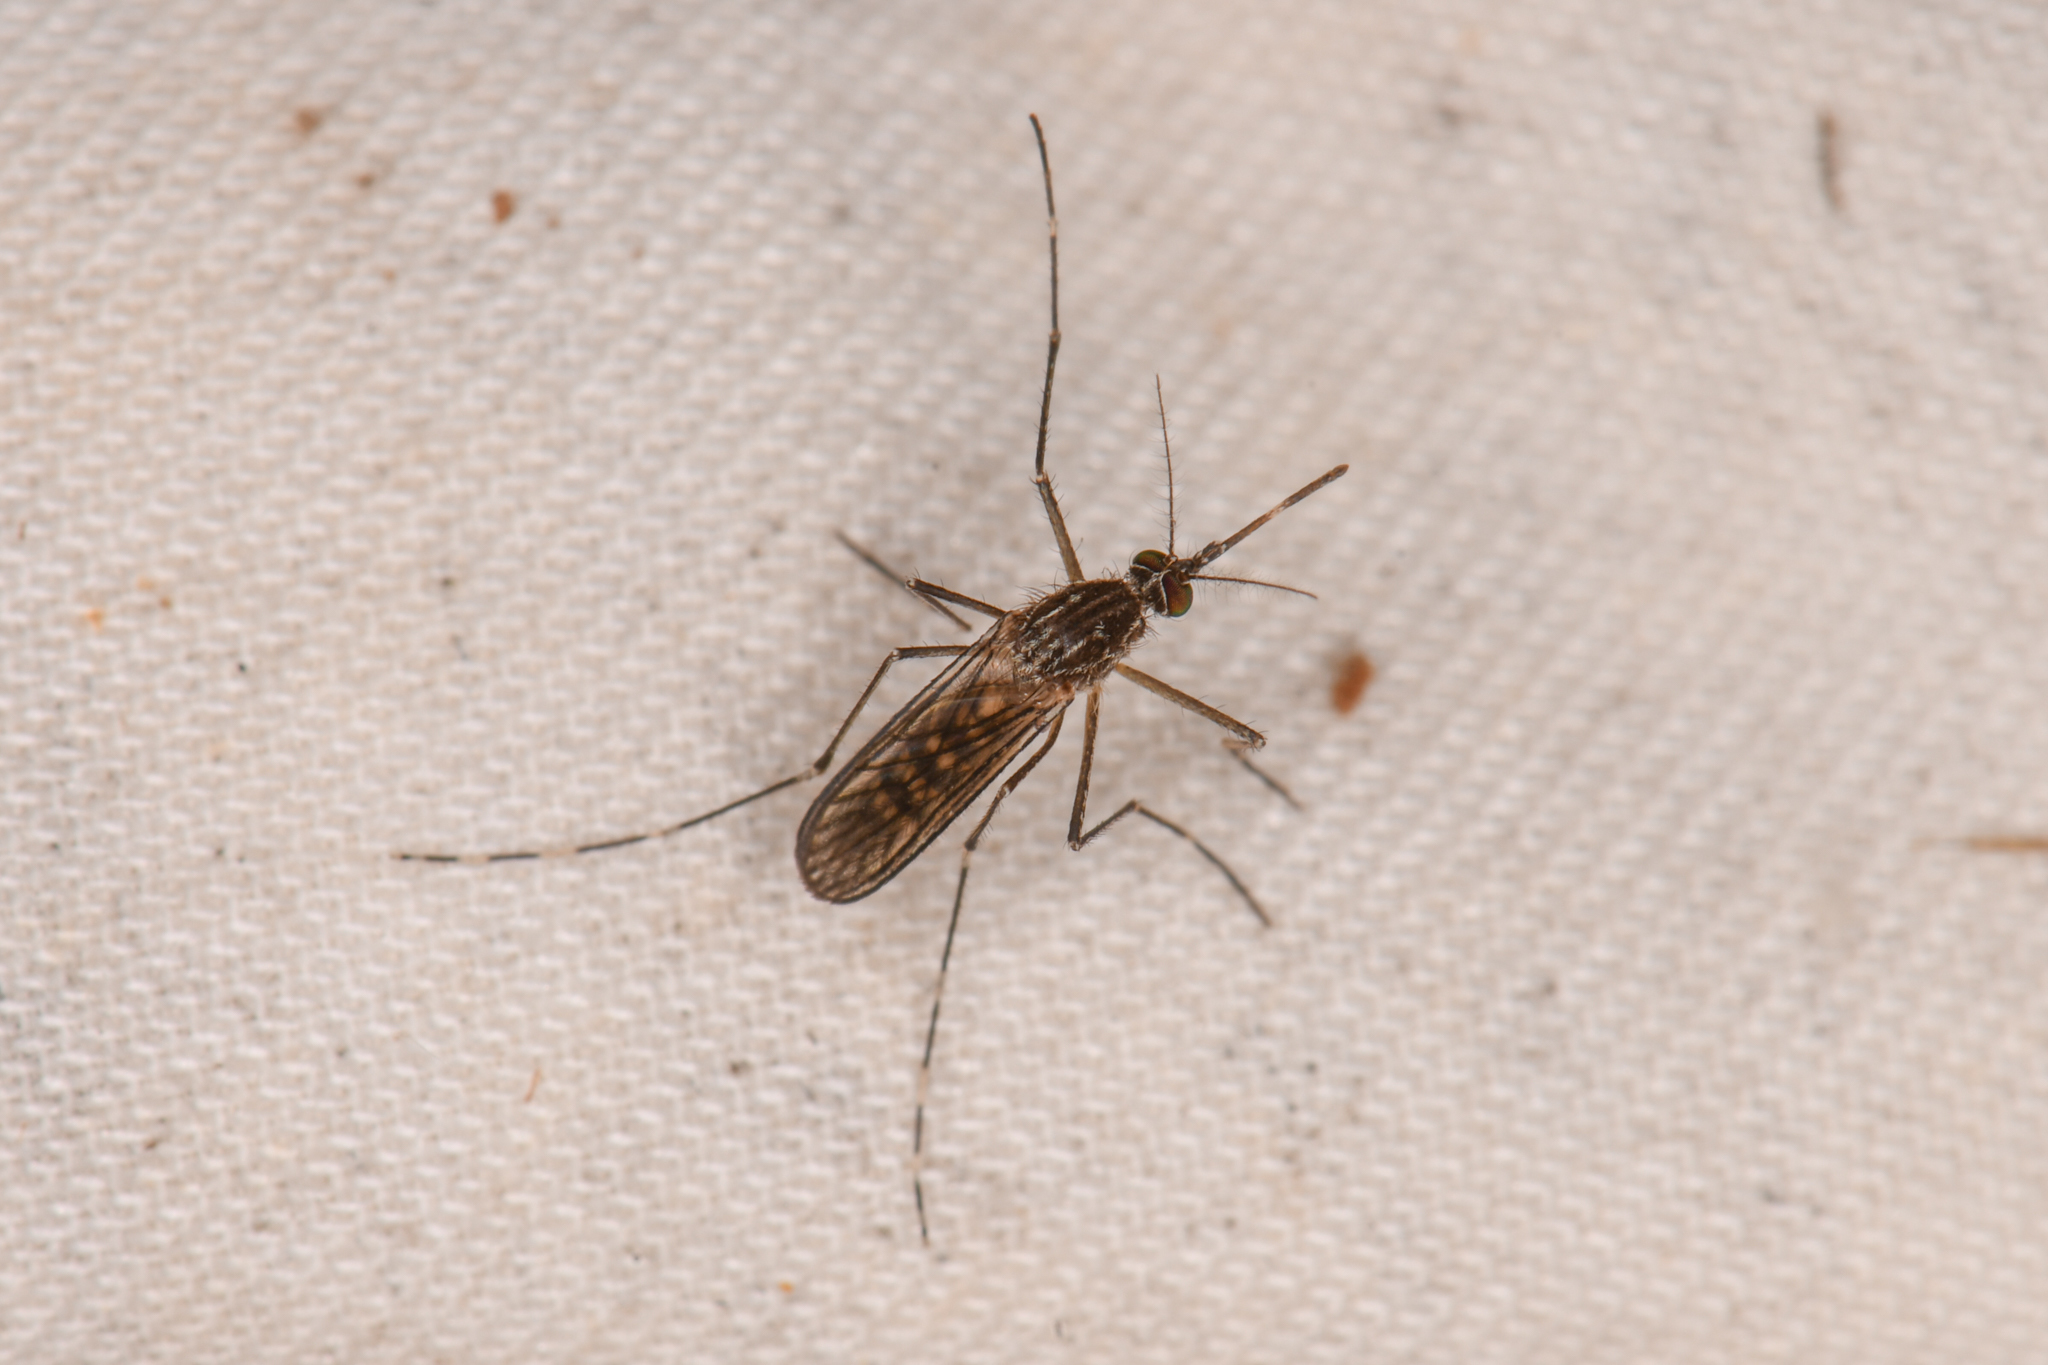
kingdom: Animalia
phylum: Arthropoda
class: Insecta
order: Diptera
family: Culicidae
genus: Culex
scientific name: Culex tarsalis
